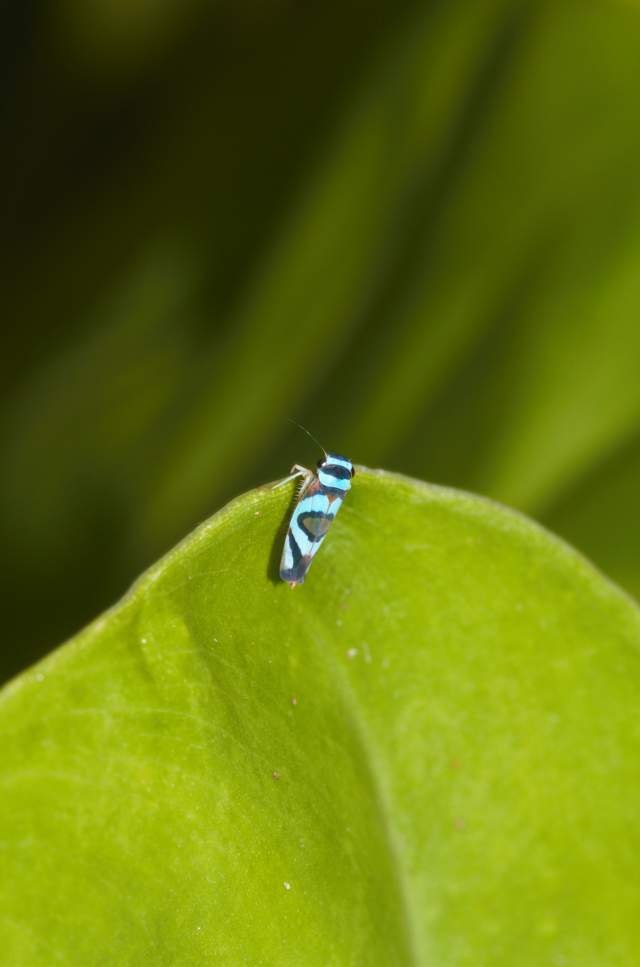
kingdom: Animalia
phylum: Arthropoda
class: Insecta
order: Hemiptera
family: Cicadellidae
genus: Macugonalia
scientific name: Macugonalia moesta
